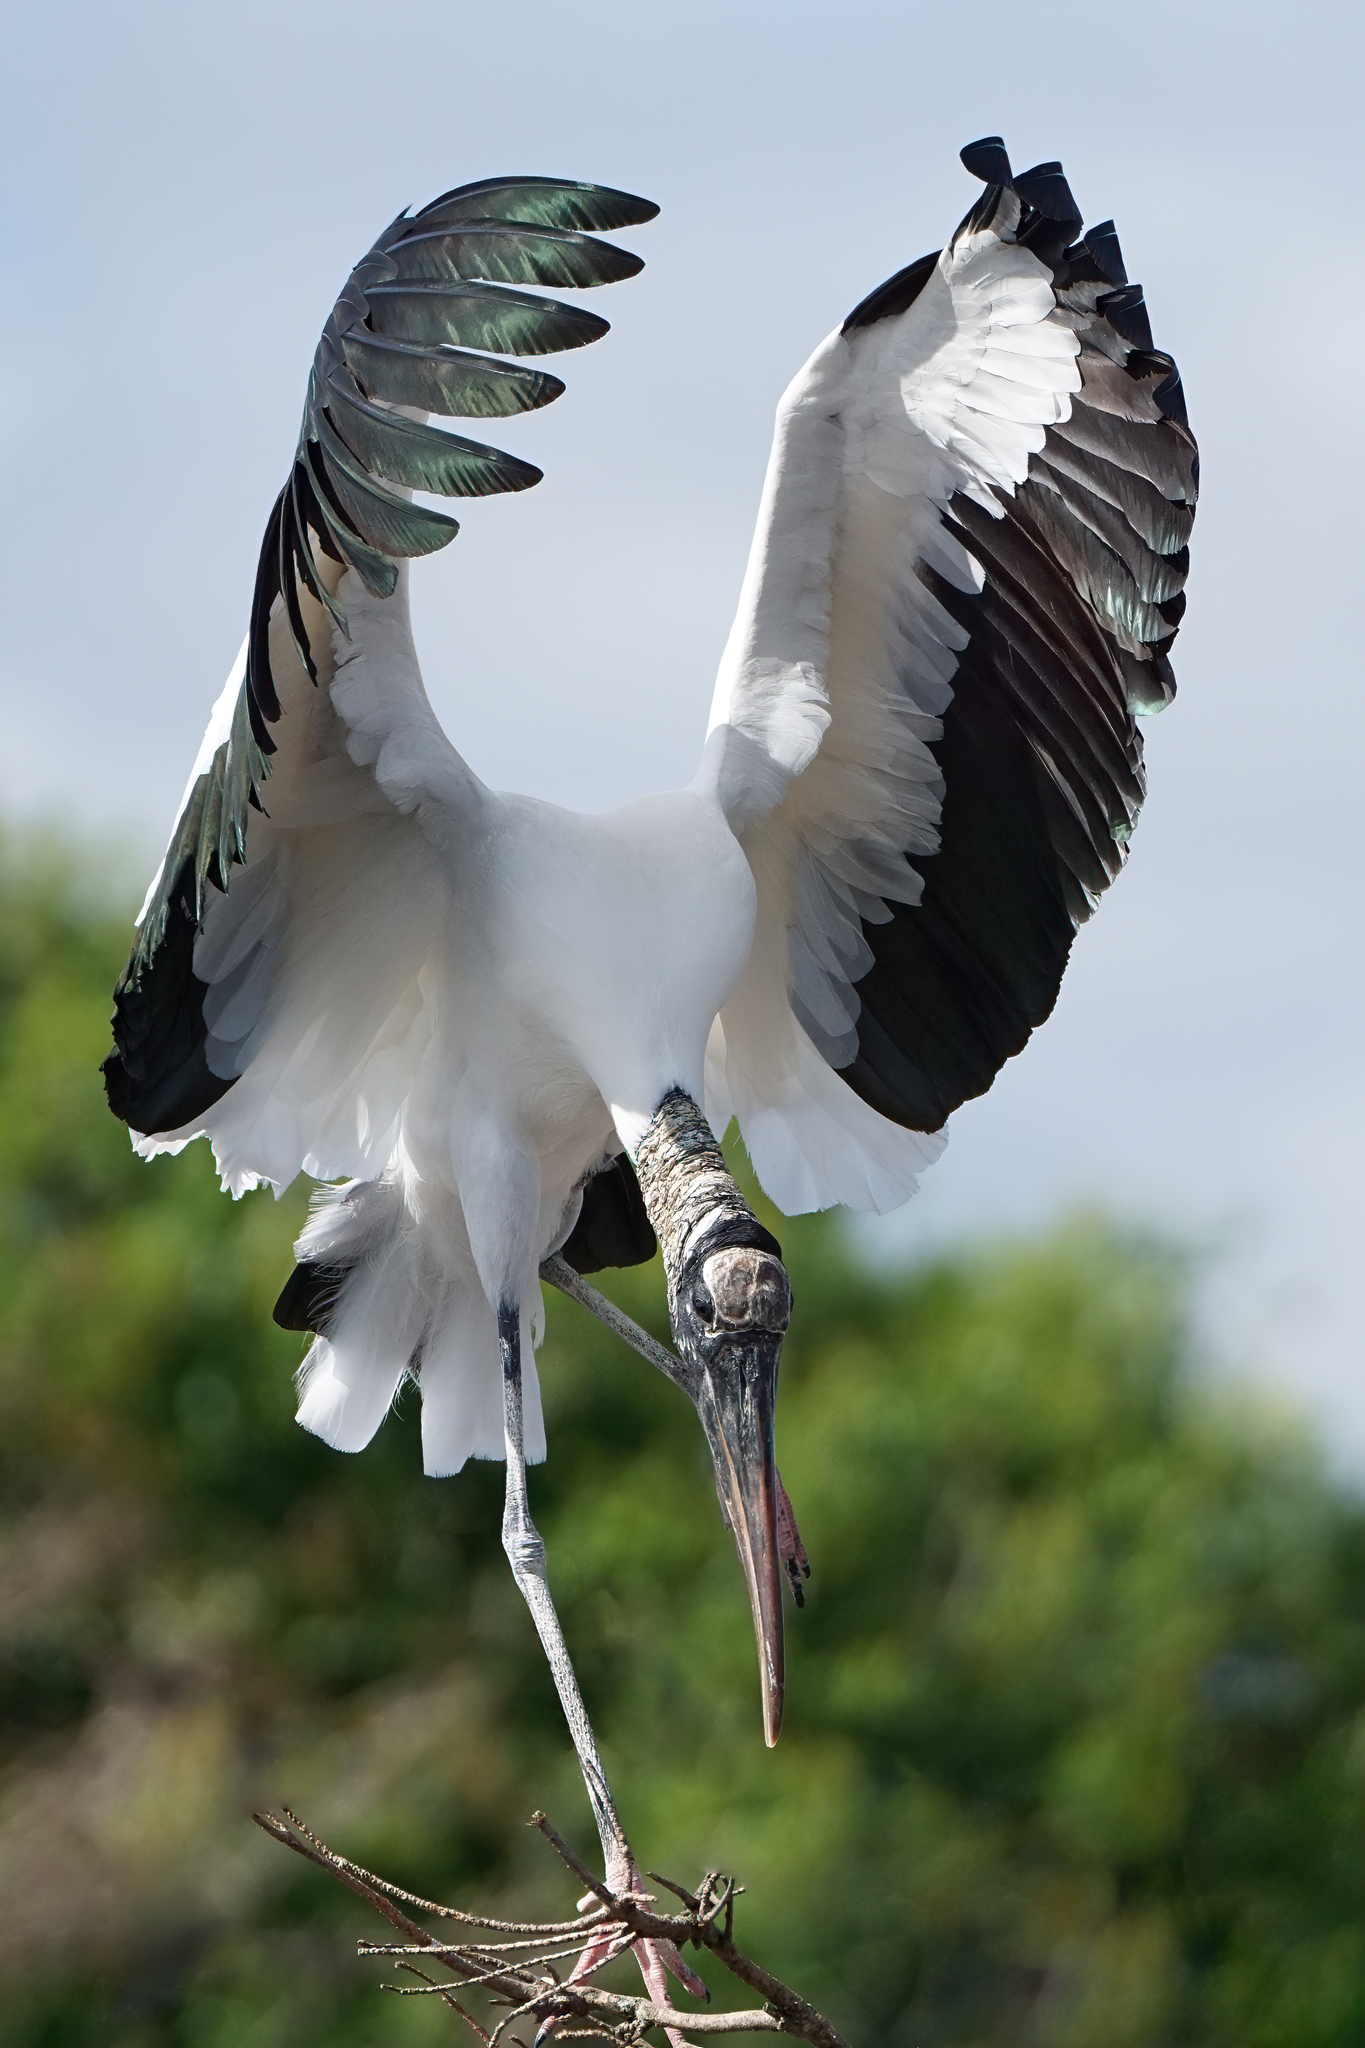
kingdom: Animalia
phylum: Chordata
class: Aves
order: Ciconiiformes
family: Ciconiidae
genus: Mycteria
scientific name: Mycteria americana
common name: Wood stork
